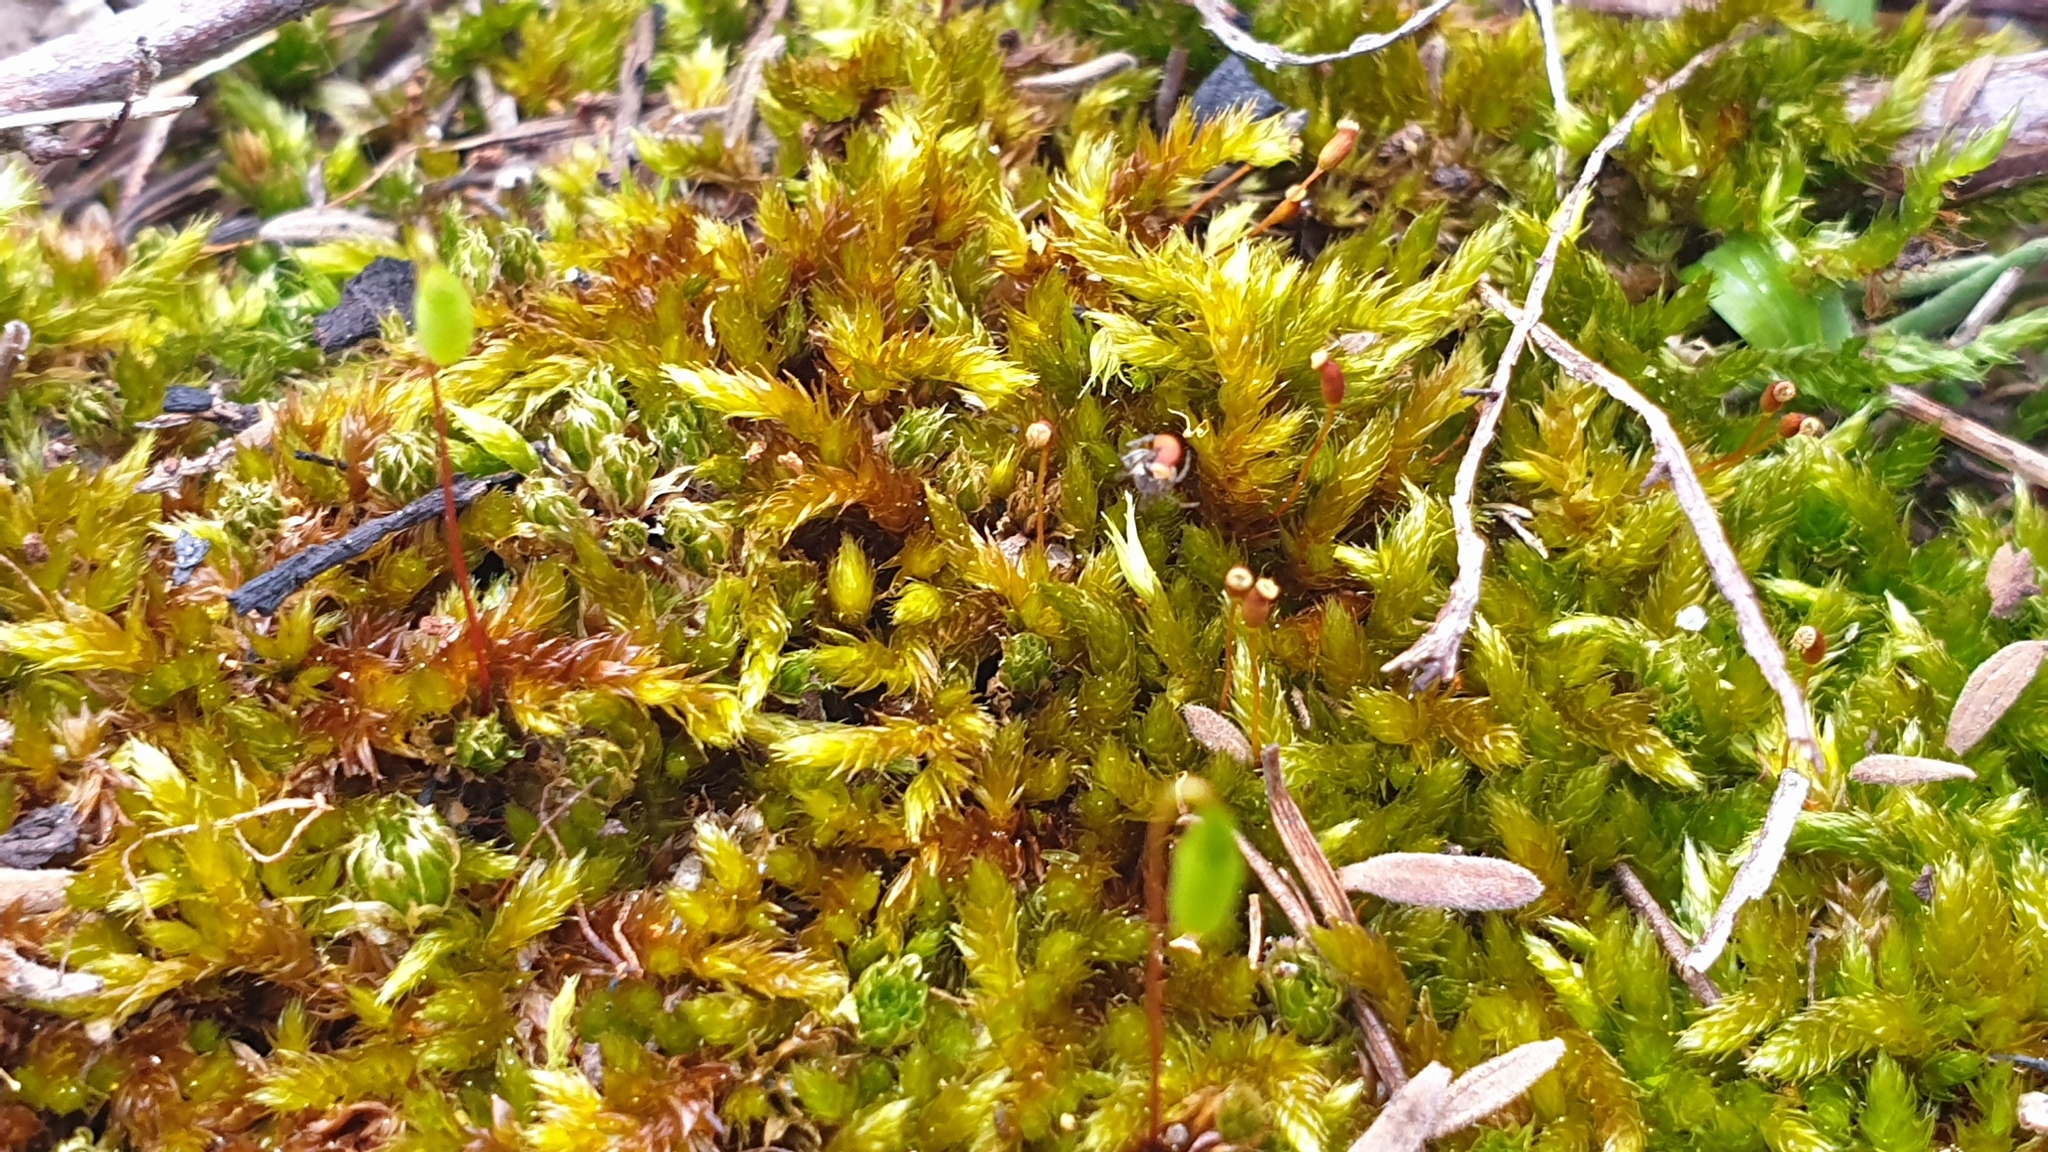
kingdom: Plantae
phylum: Bryophyta
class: Bryopsida
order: Hypnales
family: Sematophyllaceae
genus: Sematophyllum
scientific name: Sematophyllum homomallum
